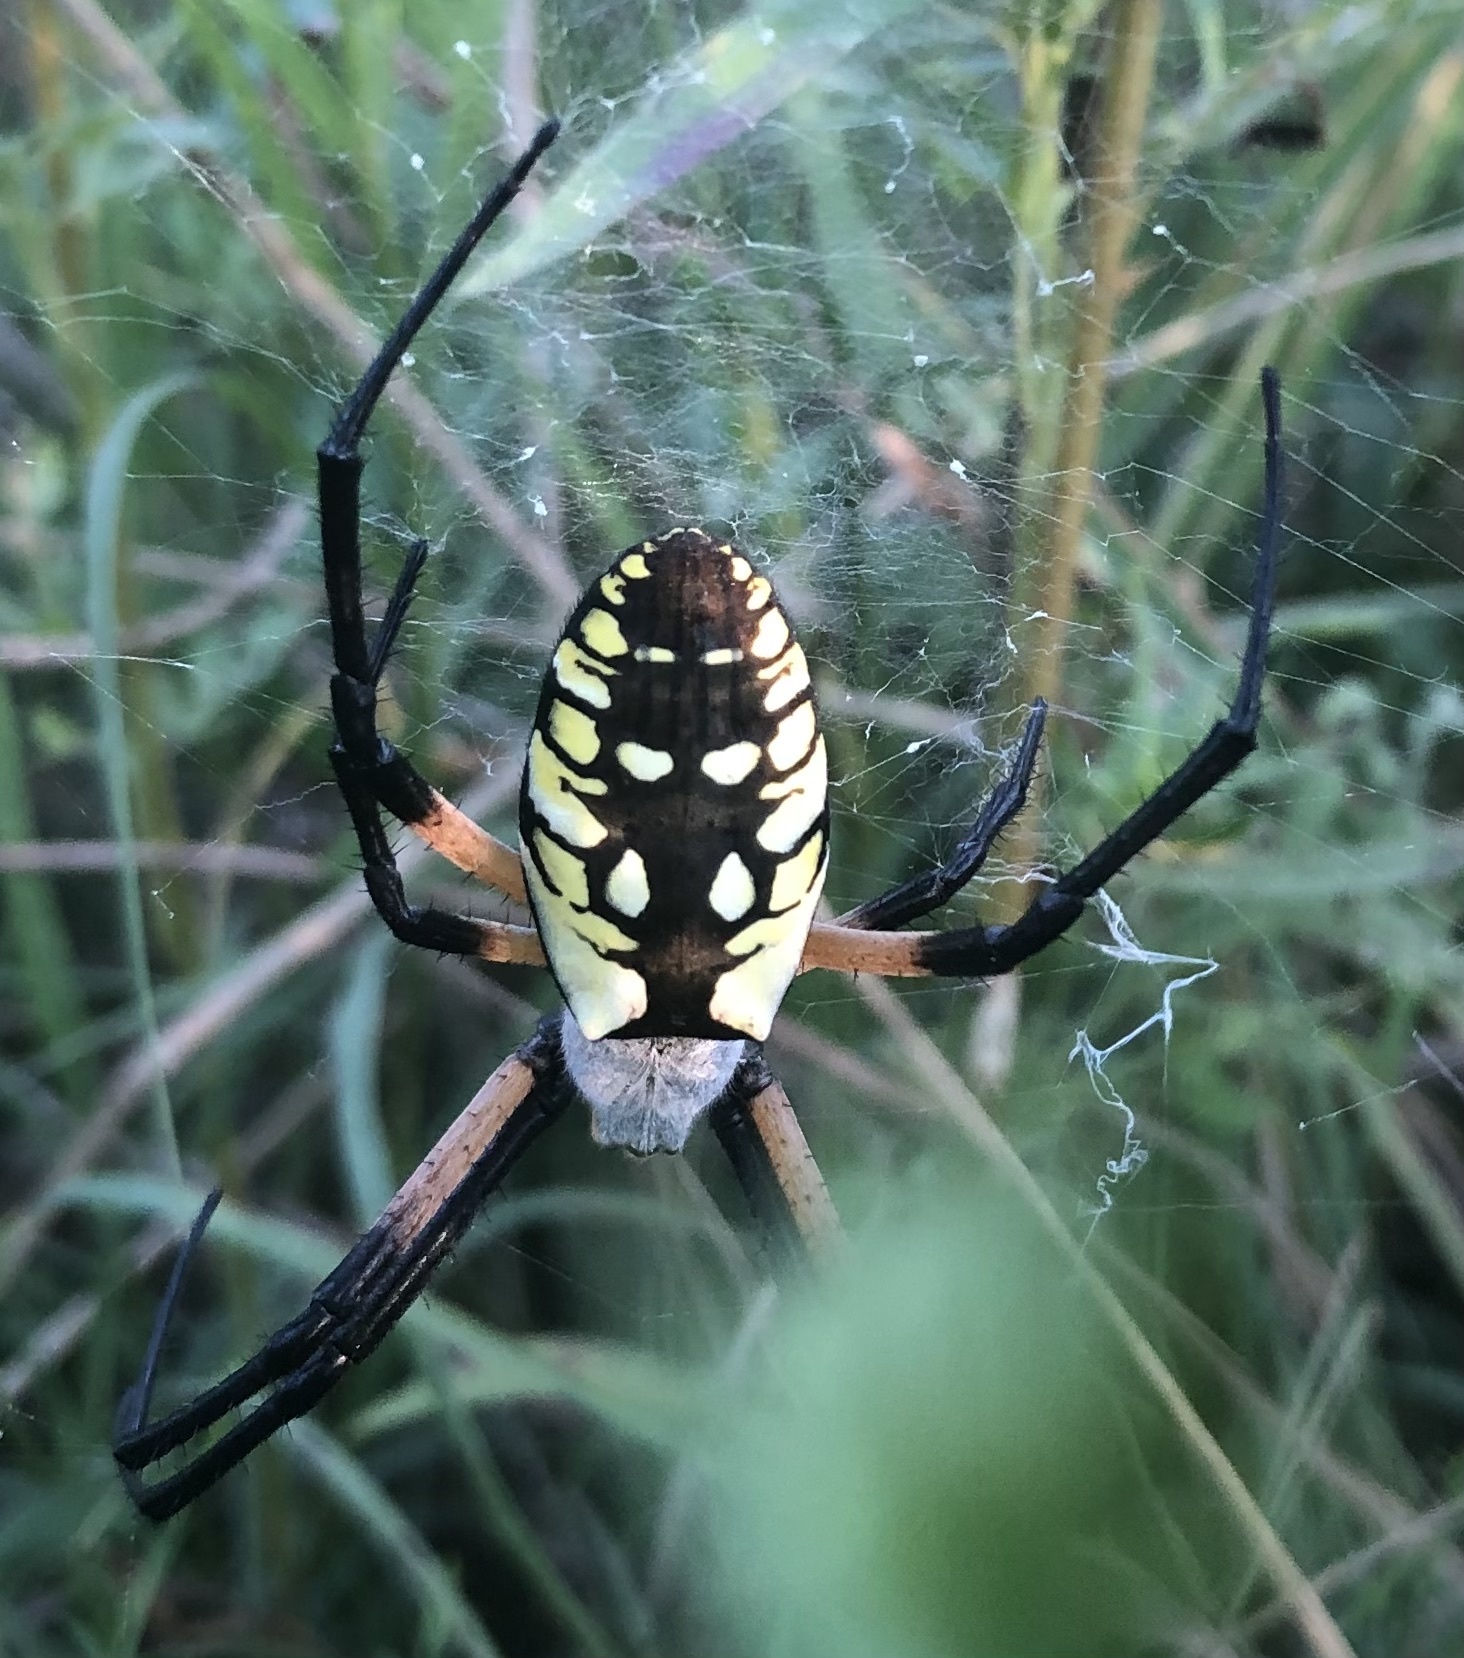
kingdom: Animalia
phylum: Arthropoda
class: Arachnida
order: Araneae
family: Araneidae
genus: Argiope
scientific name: Argiope aurantia
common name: Orb weavers
